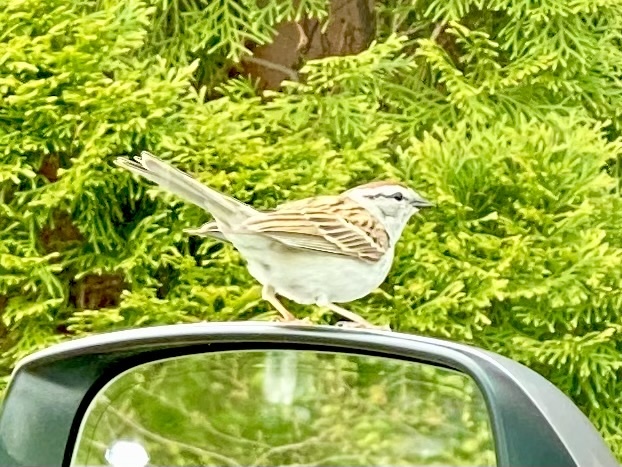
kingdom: Animalia
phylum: Chordata
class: Aves
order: Passeriformes
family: Passerellidae
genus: Spizella
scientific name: Spizella passerina
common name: Chipping sparrow
